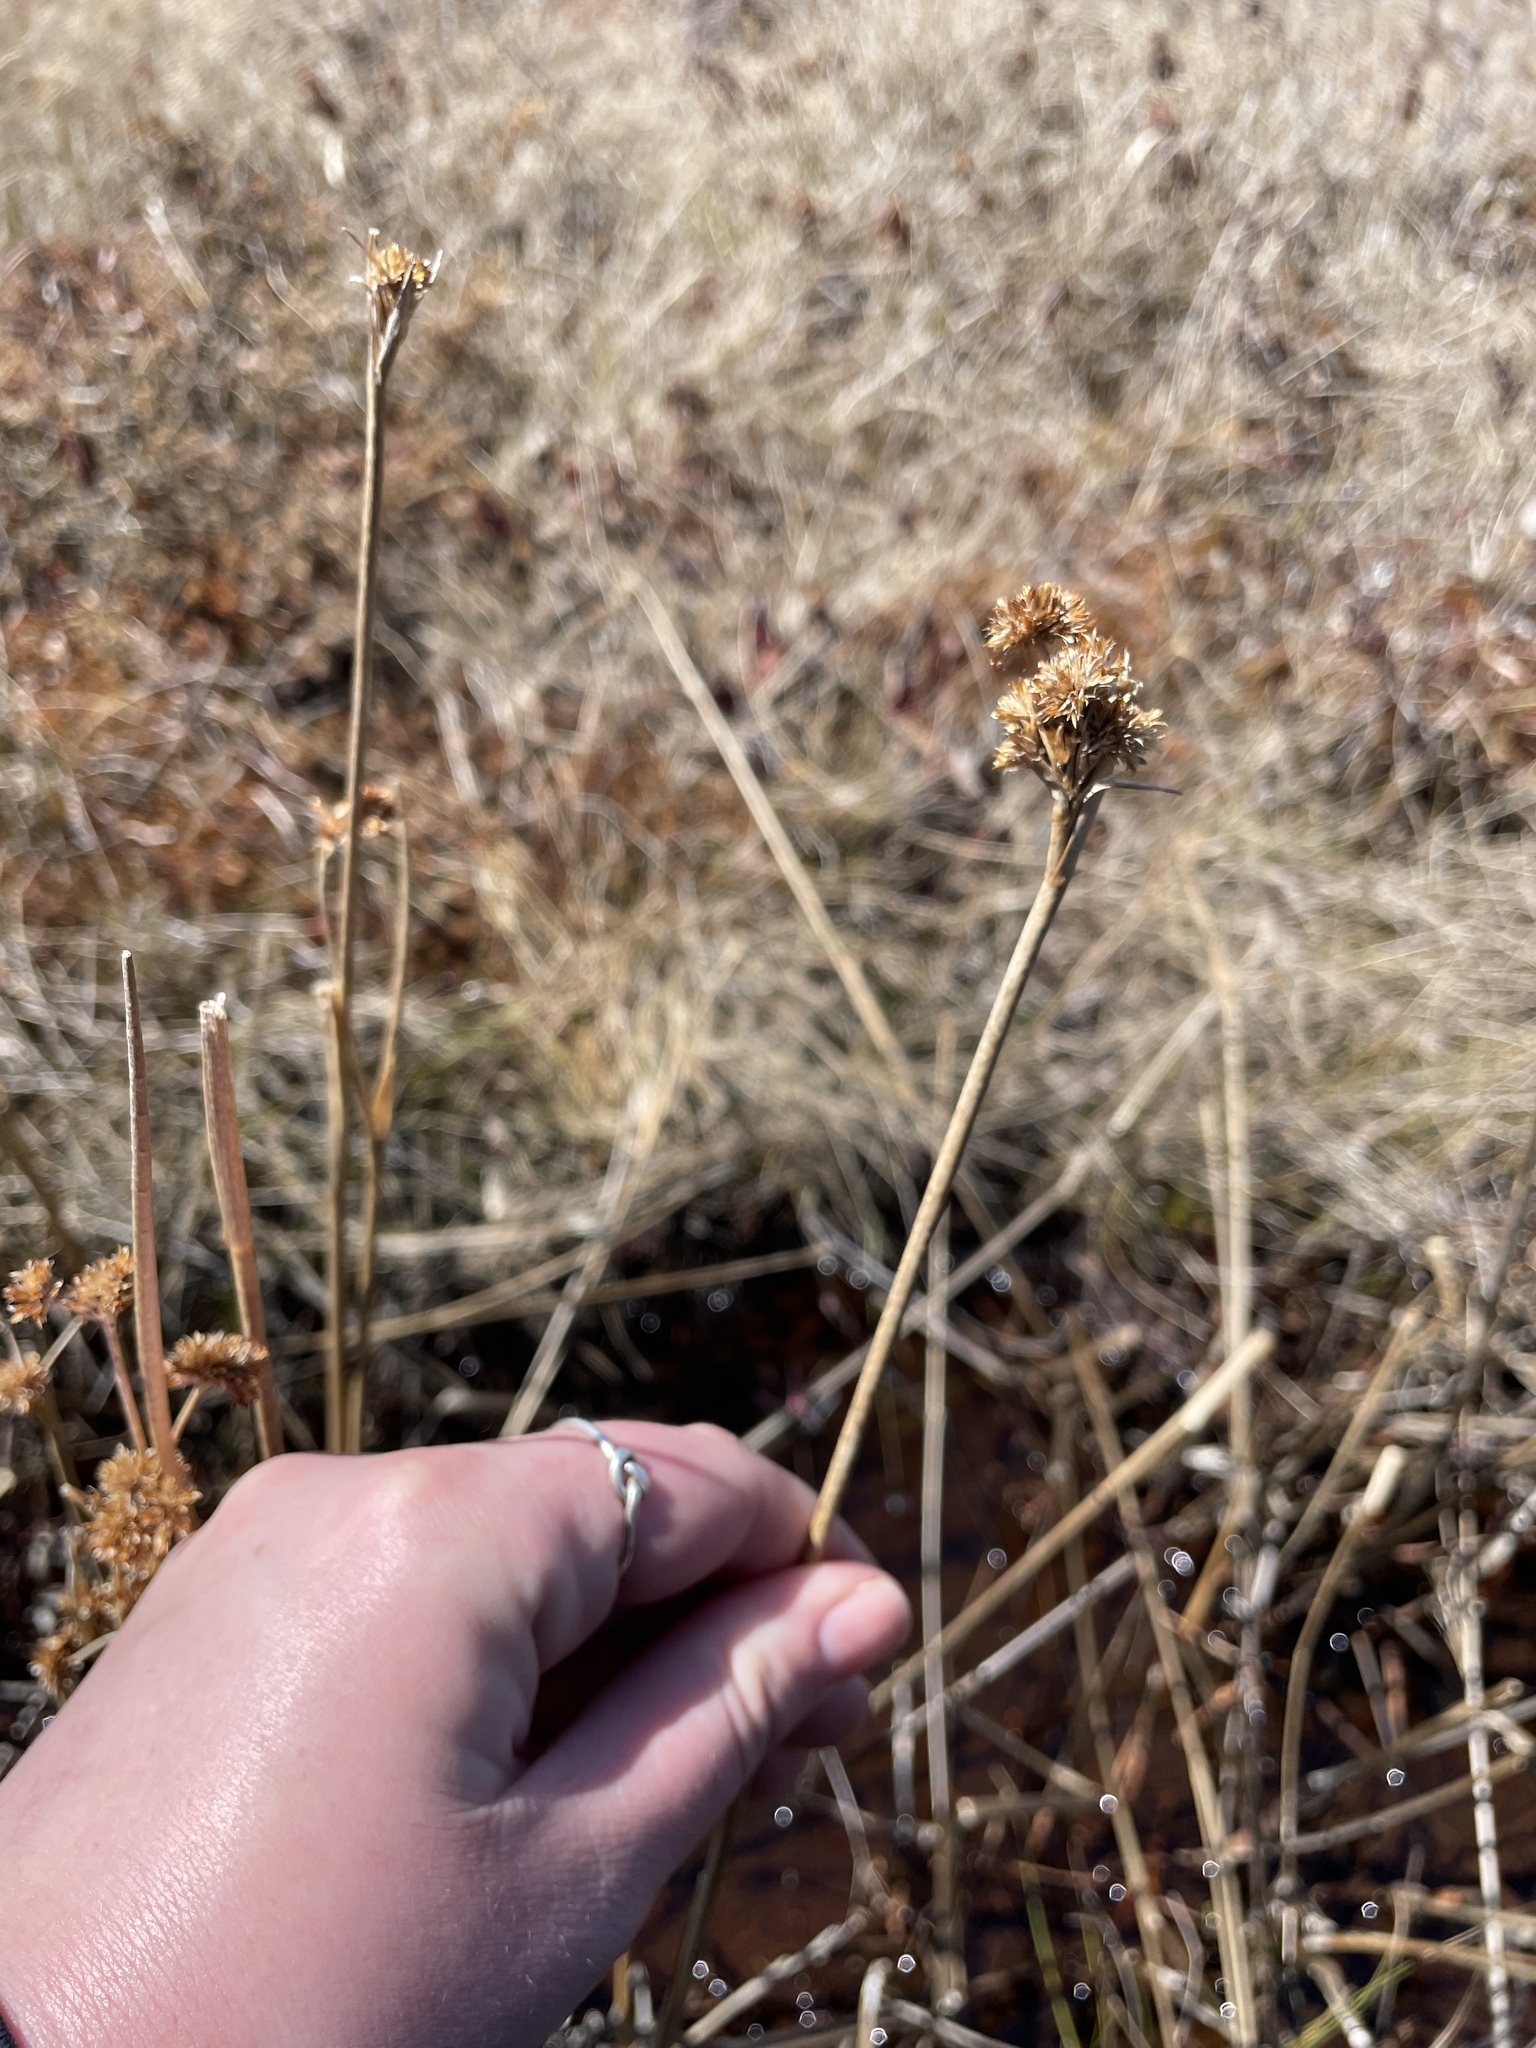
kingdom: Plantae
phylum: Tracheophyta
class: Liliopsida
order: Poales
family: Juncaceae
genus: Juncus
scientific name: Juncus canadensis
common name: Canada rush
